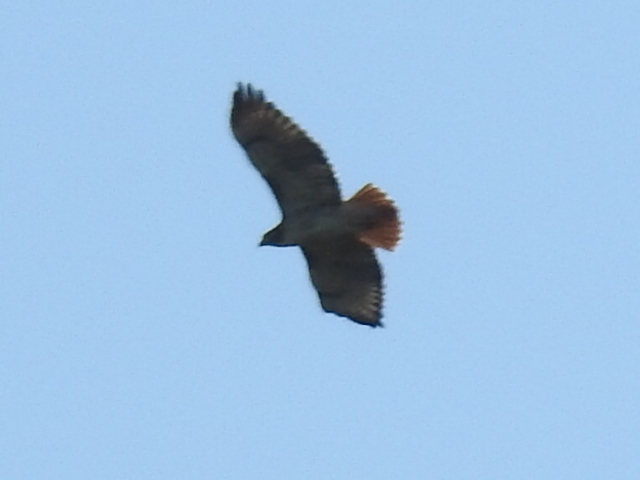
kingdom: Animalia
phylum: Chordata
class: Aves
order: Accipitriformes
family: Accipitridae
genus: Buteo
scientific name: Buteo jamaicensis
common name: Red-tailed hawk
